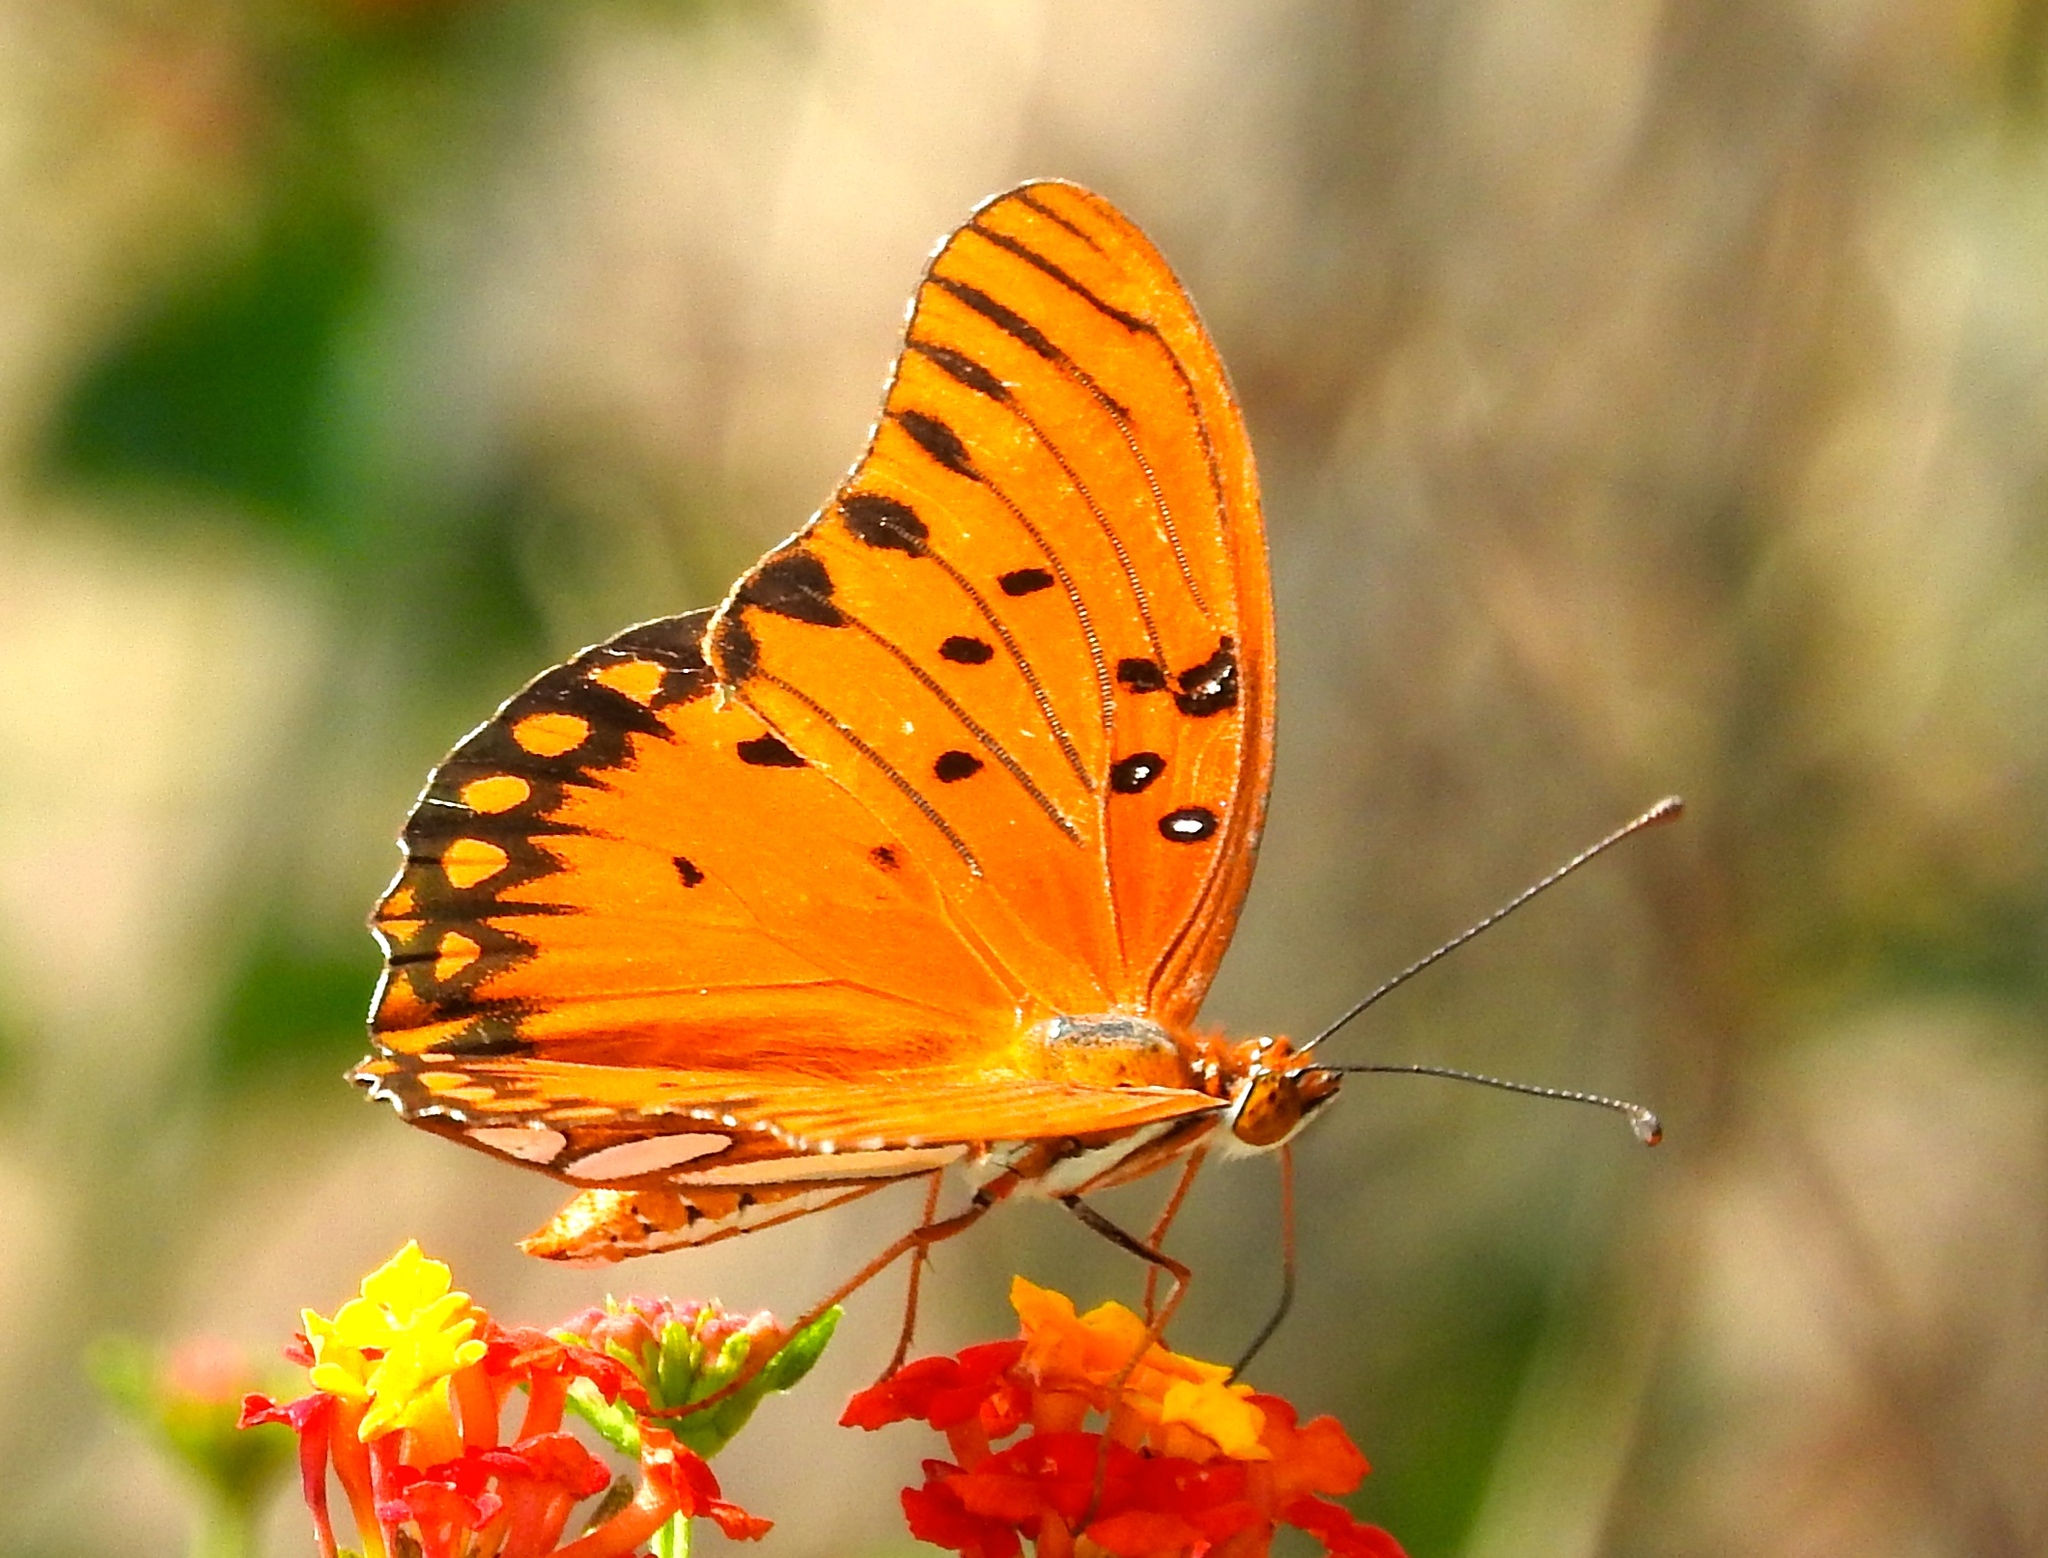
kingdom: Animalia
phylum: Arthropoda
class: Insecta
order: Lepidoptera
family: Nymphalidae
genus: Dione
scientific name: Dione vanillae
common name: Gulf fritillary
